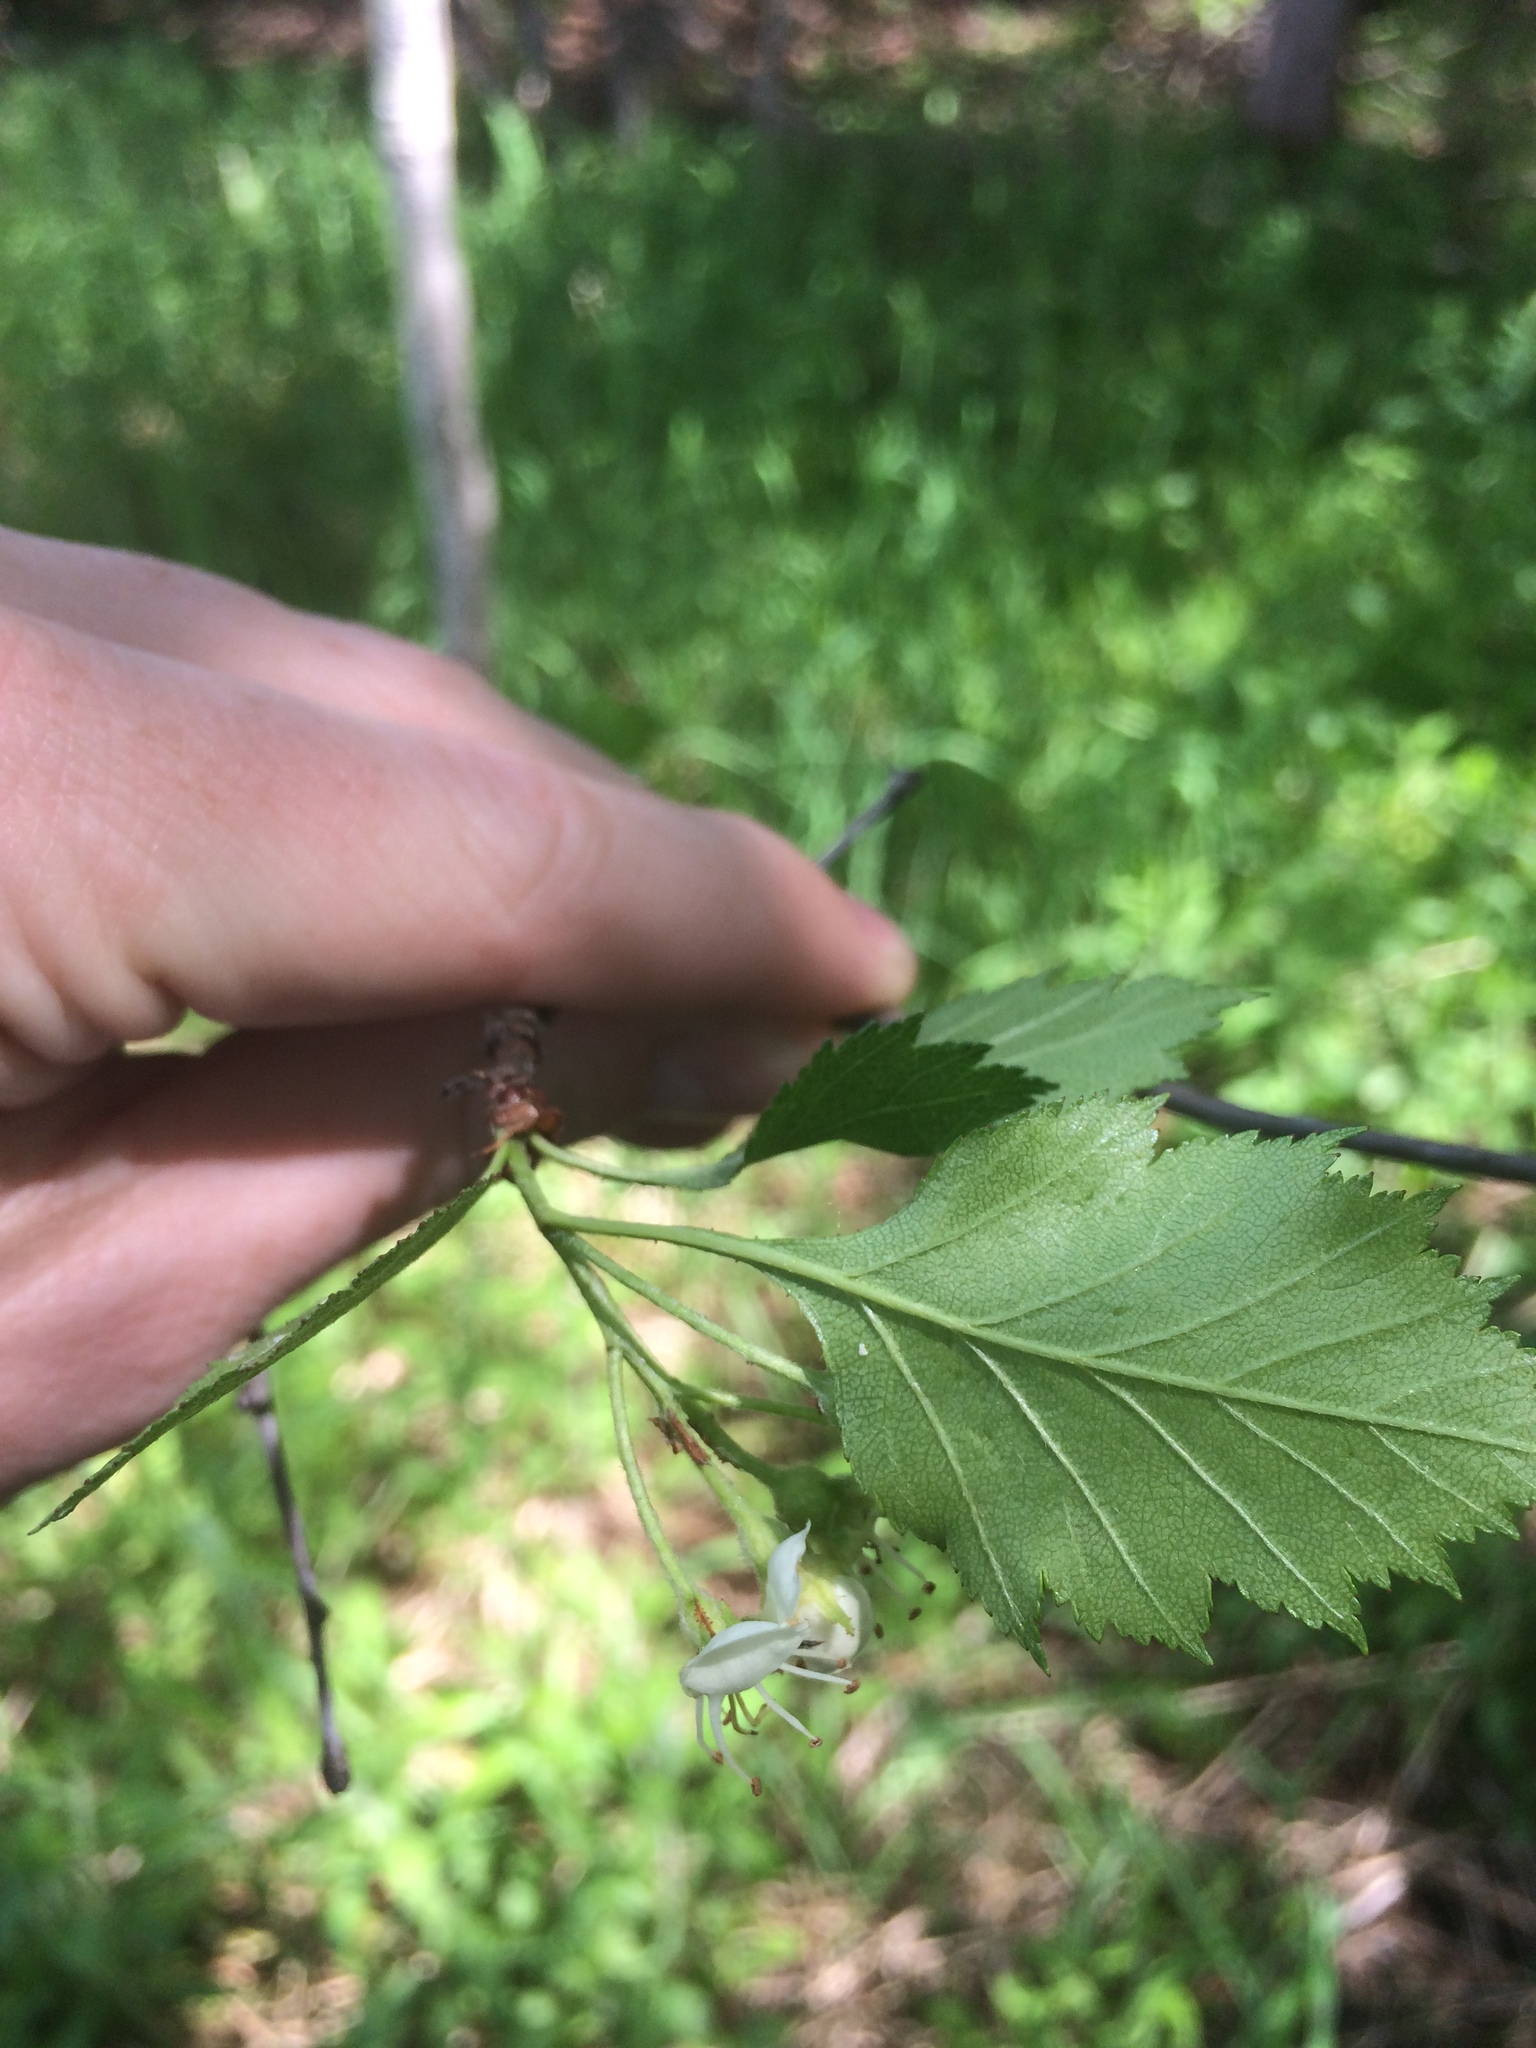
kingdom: Plantae
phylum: Tracheophyta
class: Magnoliopsida
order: Rosales
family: Rosaceae
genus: Crataegus
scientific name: Crataegus chrysocarpa
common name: Fire-berry hawthorn
